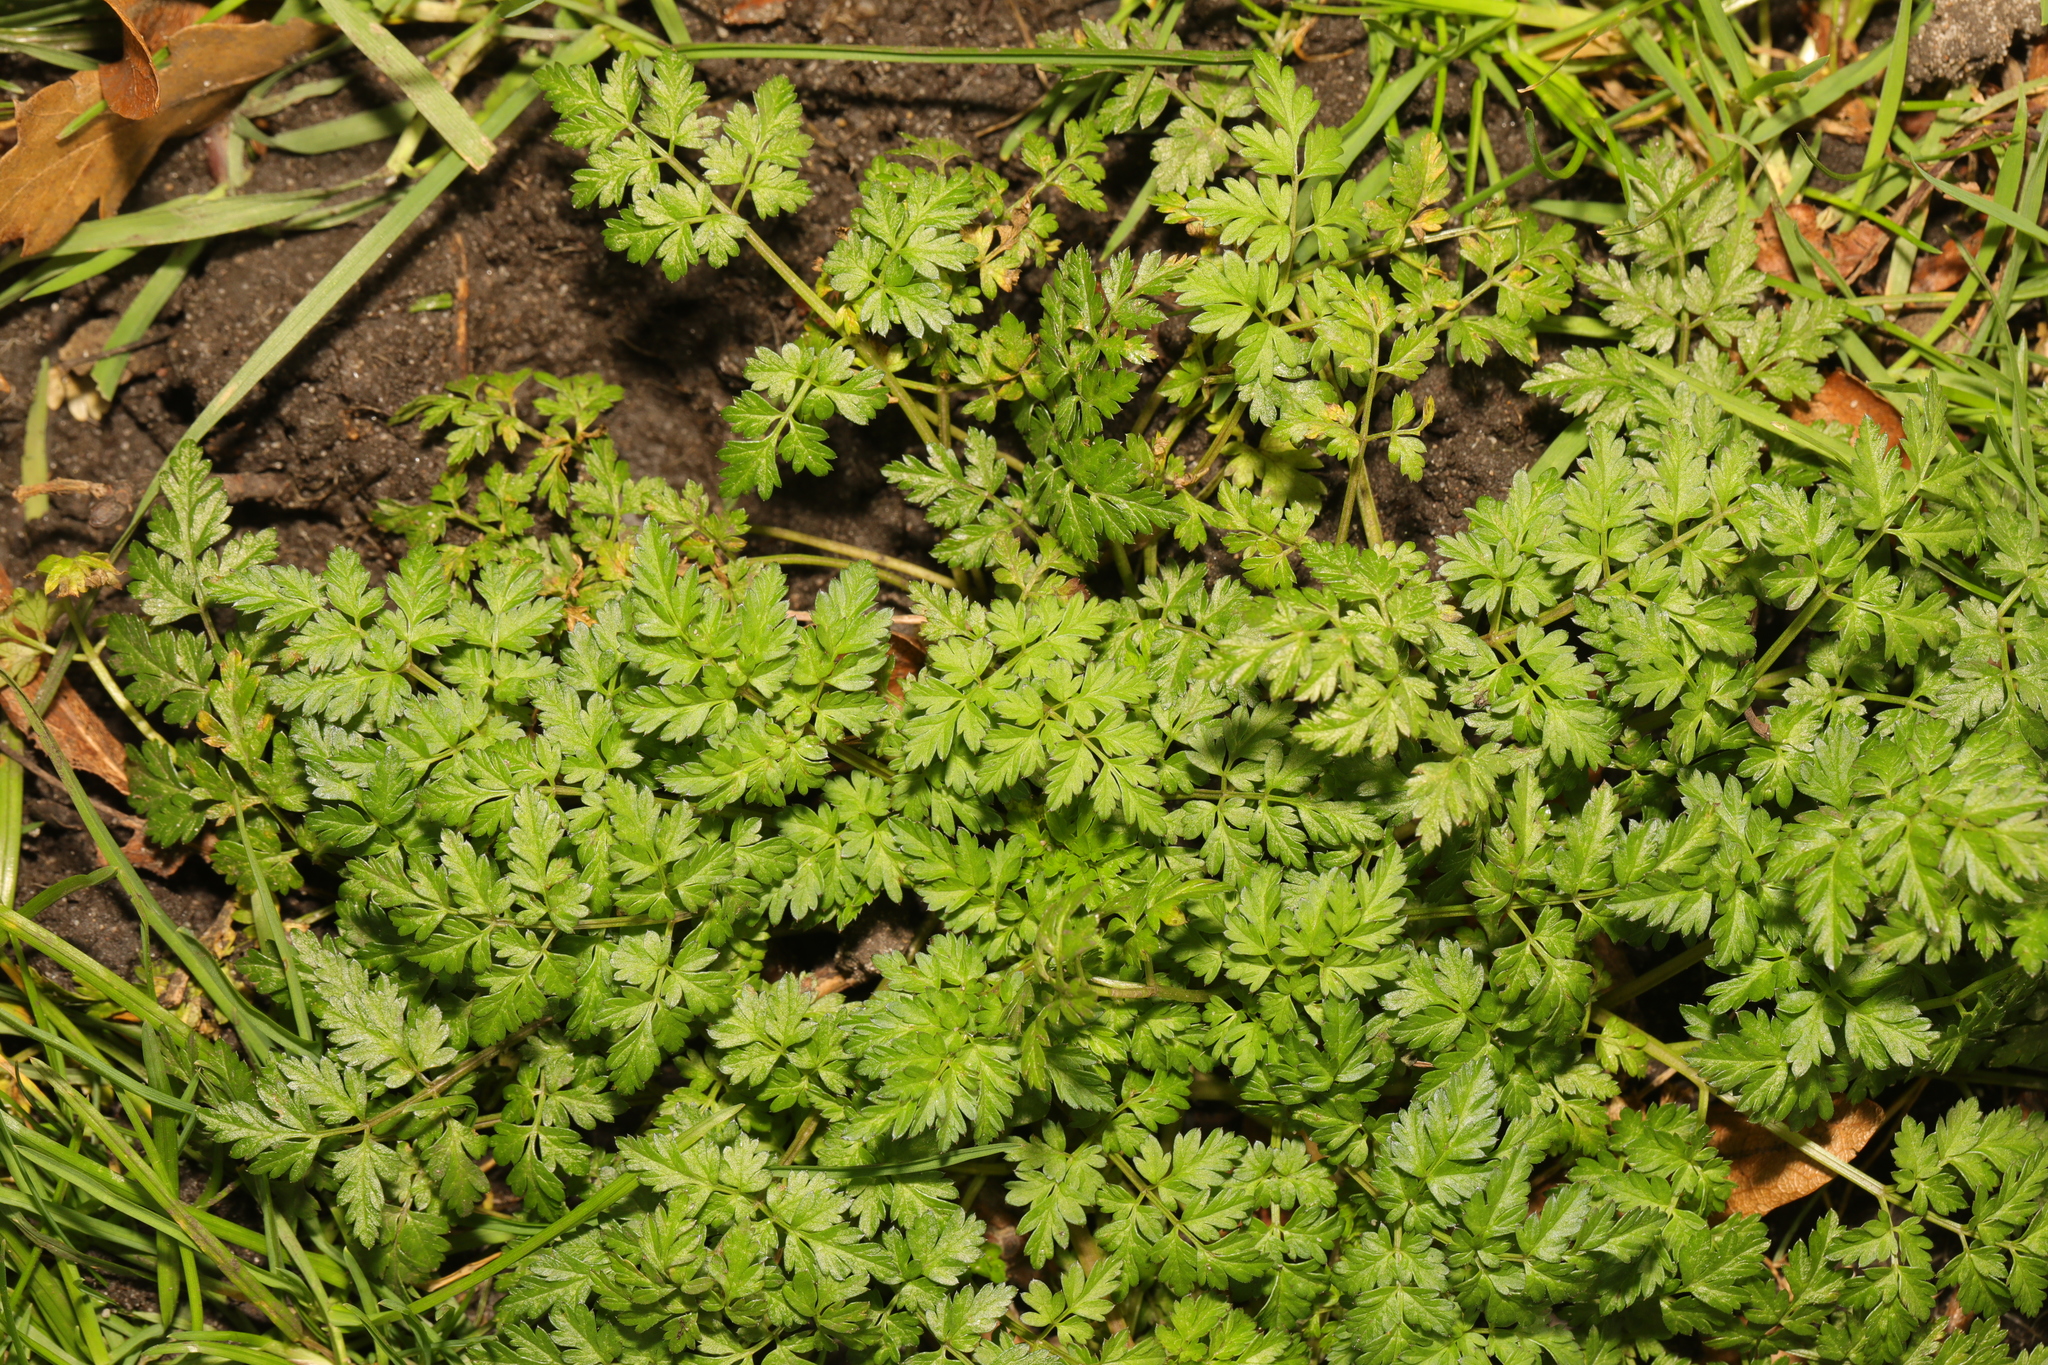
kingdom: Plantae
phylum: Tracheophyta
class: Magnoliopsida
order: Apiales
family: Apiaceae
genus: Anthriscus
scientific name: Anthriscus sylvestris
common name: Cow parsley
